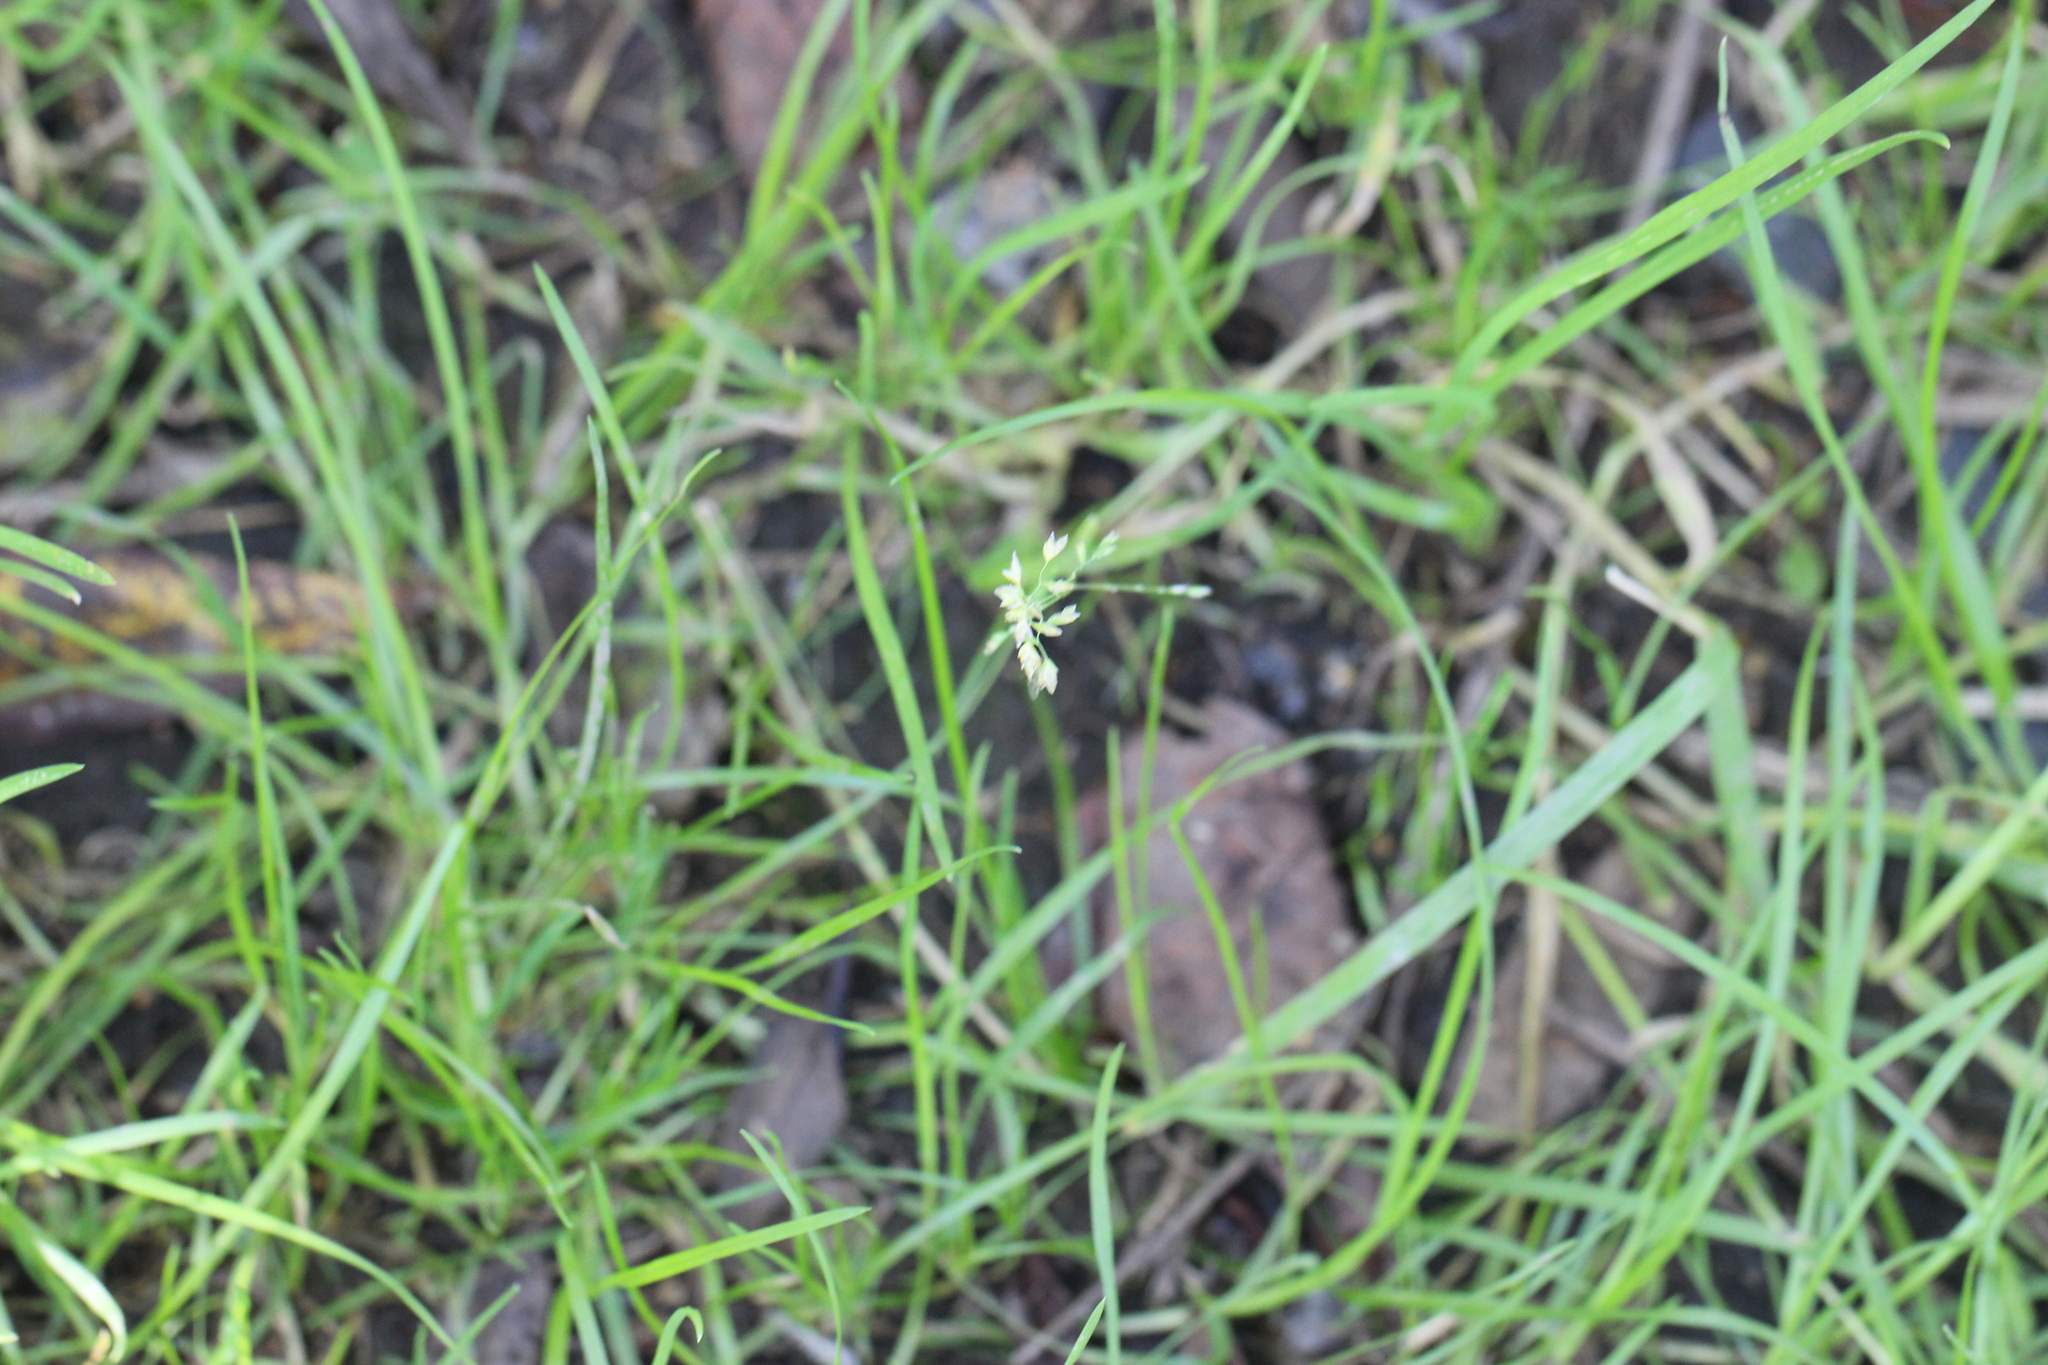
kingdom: Plantae
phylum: Tracheophyta
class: Liliopsida
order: Poales
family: Poaceae
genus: Poa
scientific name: Poa annua
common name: Annual bluegrass
